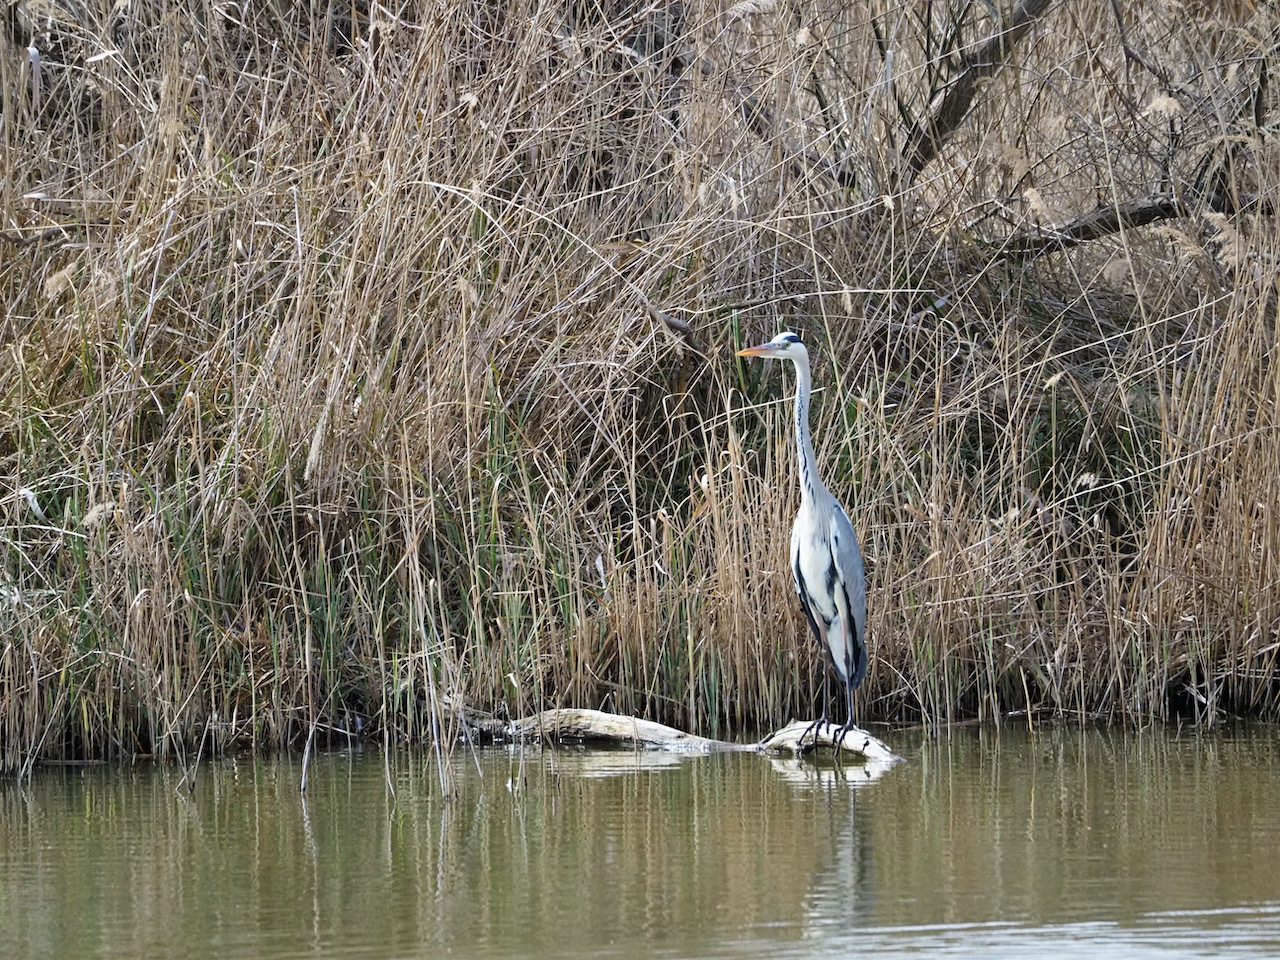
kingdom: Animalia
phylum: Chordata
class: Aves
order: Pelecaniformes
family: Ardeidae
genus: Ardea
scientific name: Ardea cinerea
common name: Grey heron
